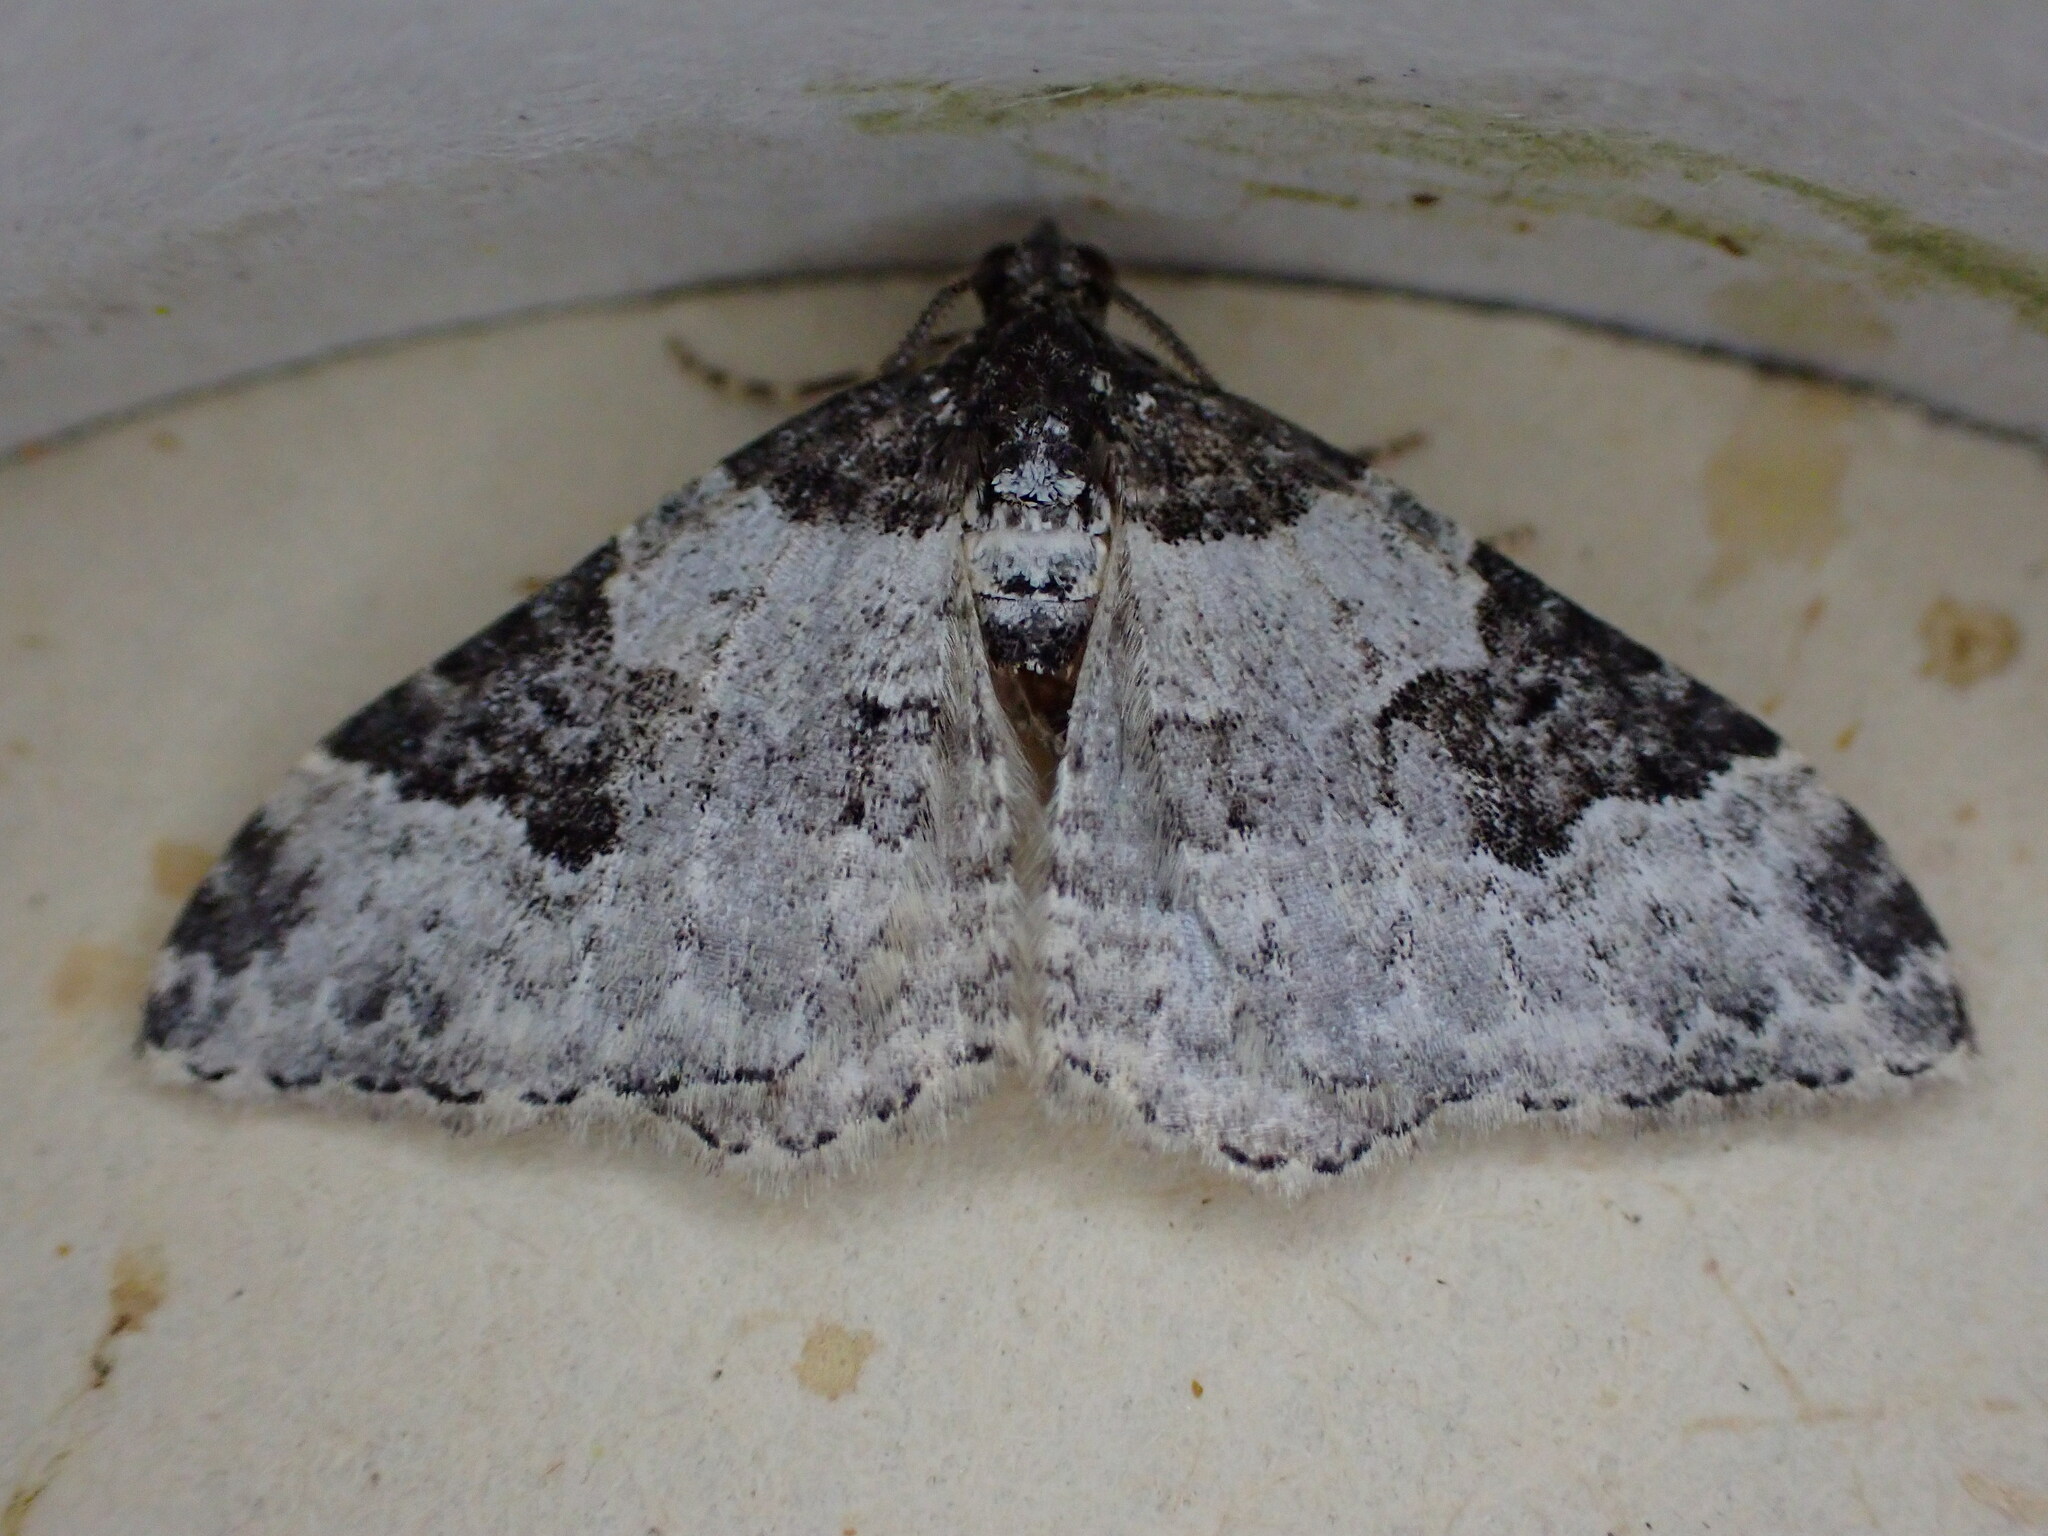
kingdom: Animalia
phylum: Arthropoda
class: Insecta
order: Lepidoptera
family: Geometridae
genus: Xanthorhoe
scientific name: Xanthorhoe fluctuata
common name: Garden carpet
